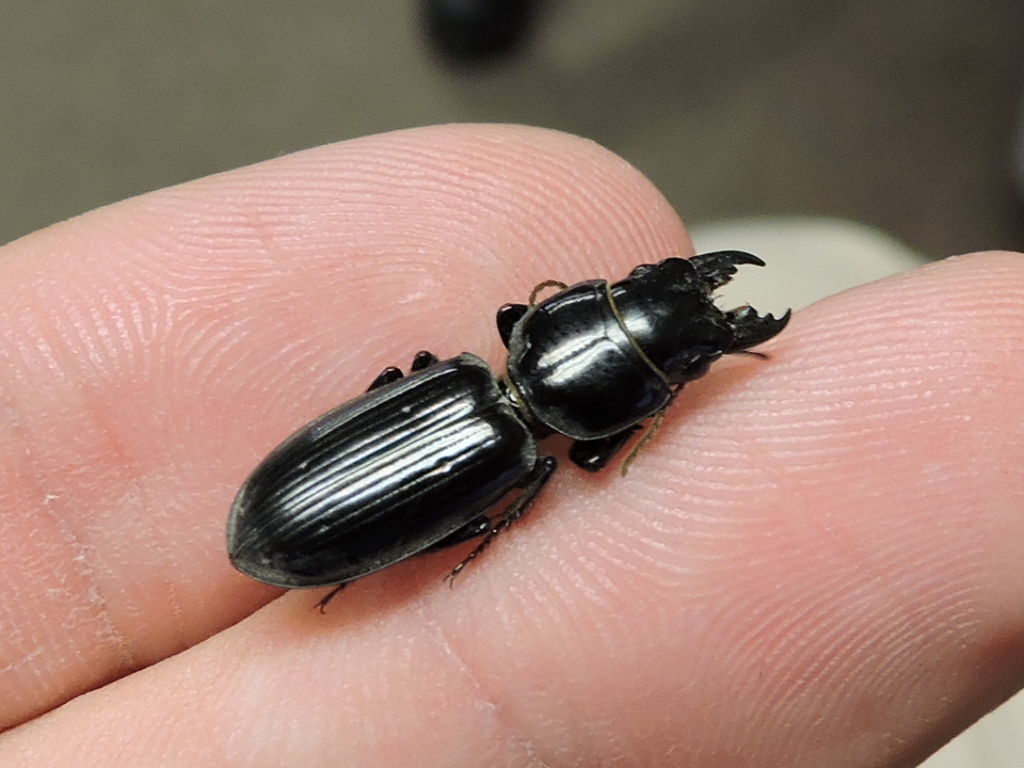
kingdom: Animalia
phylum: Arthropoda
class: Insecta
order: Coleoptera
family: Carabidae
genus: Scarites
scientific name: Scarites subterraneus
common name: Big-headed ground beetle
